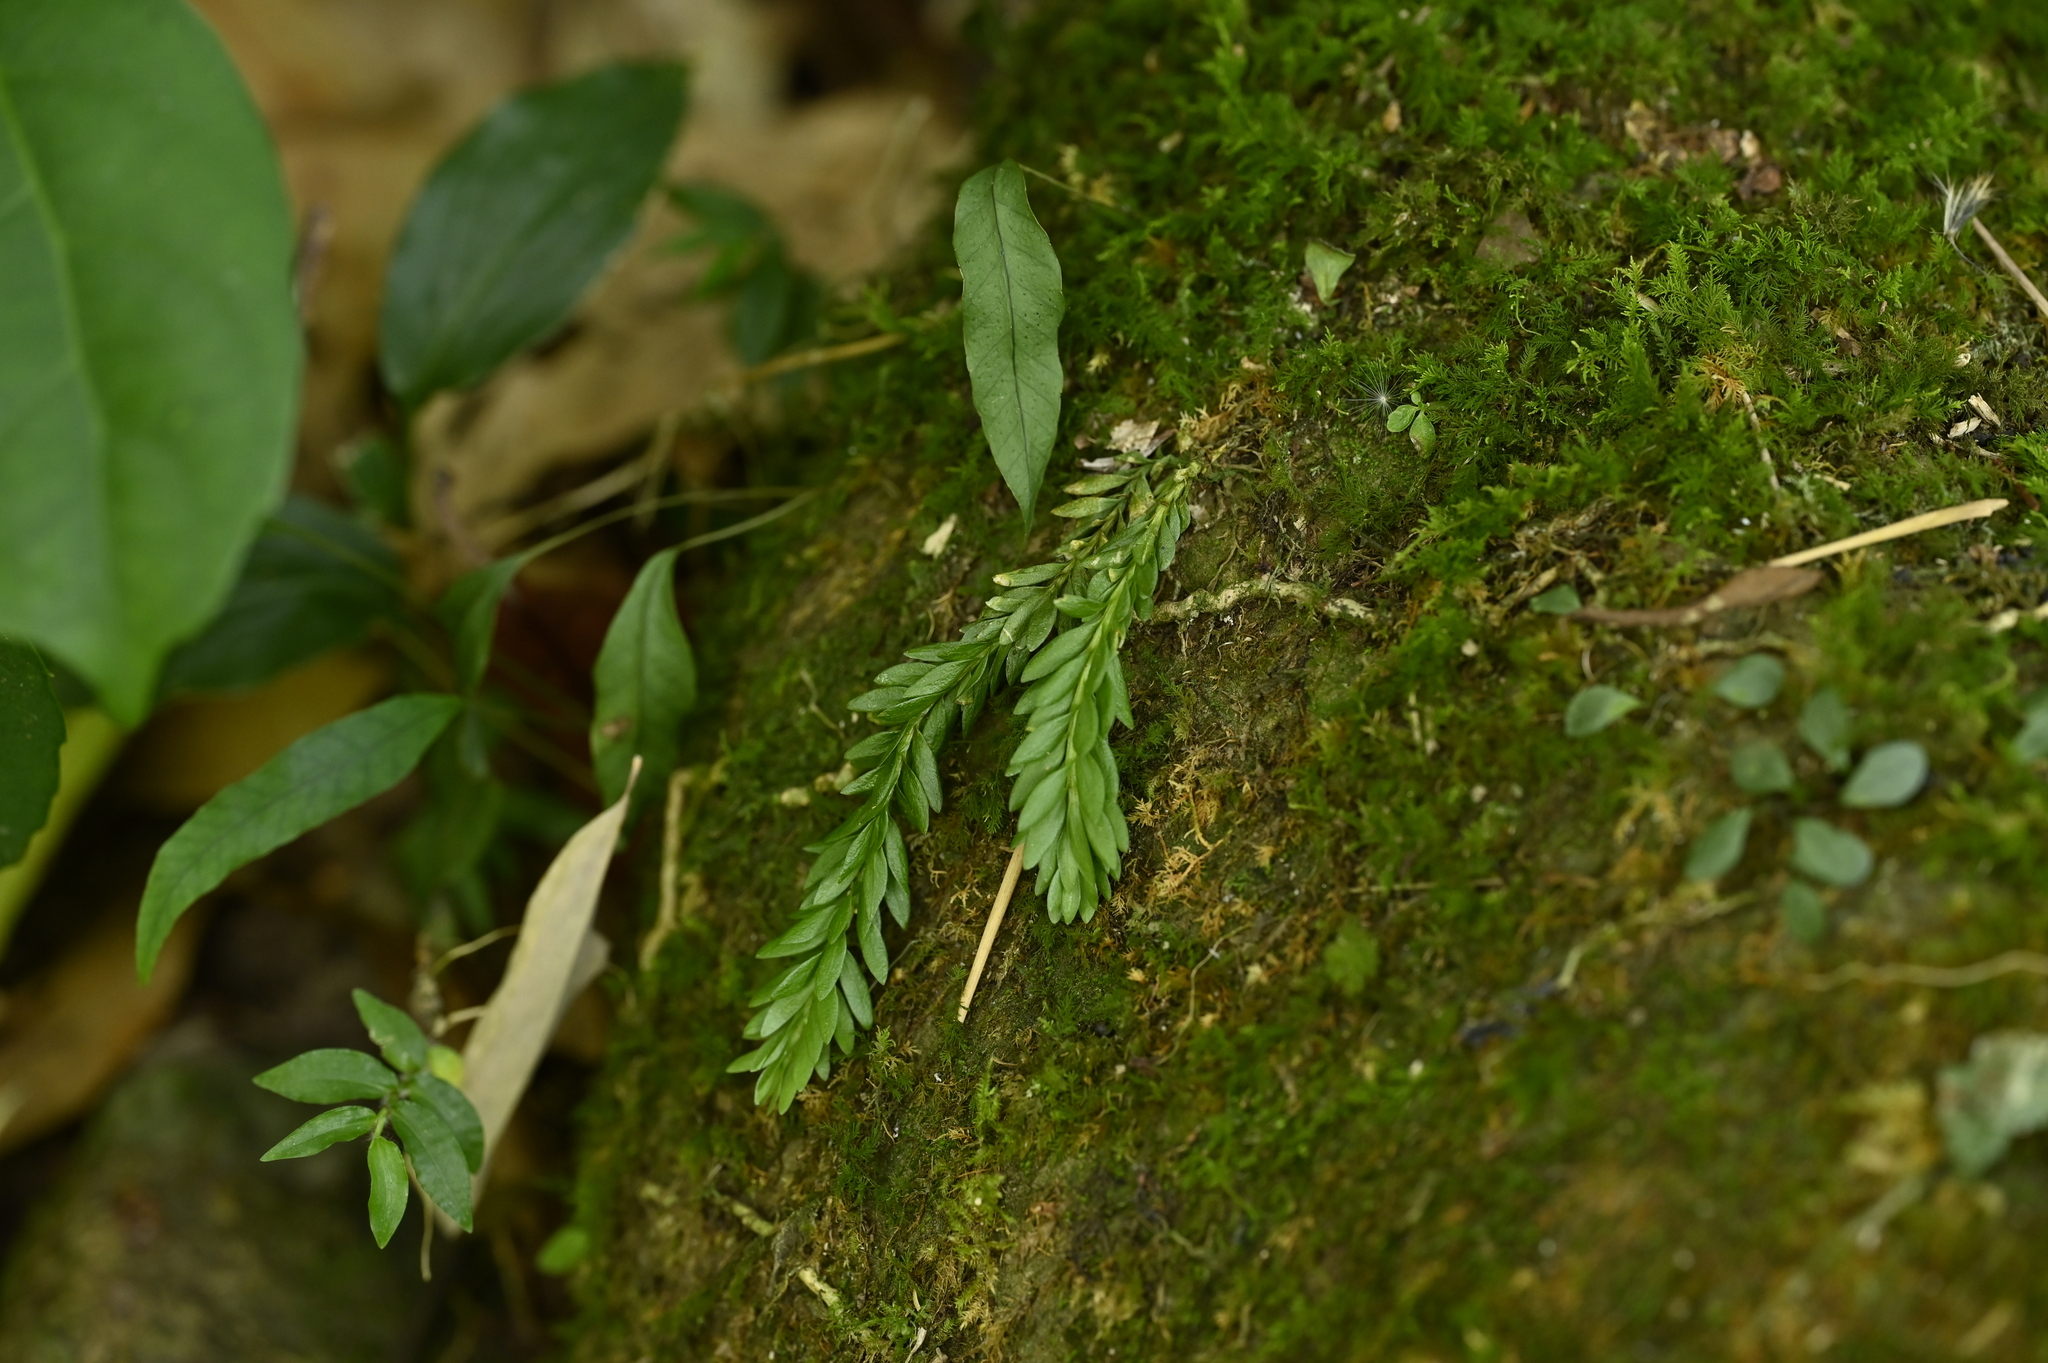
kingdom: Plantae
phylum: Tracheophyta
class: Lycopodiopsida
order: Lycopodiales
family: Lycopodiaceae
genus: Phlegmariurus
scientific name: Phlegmariurus fordii
